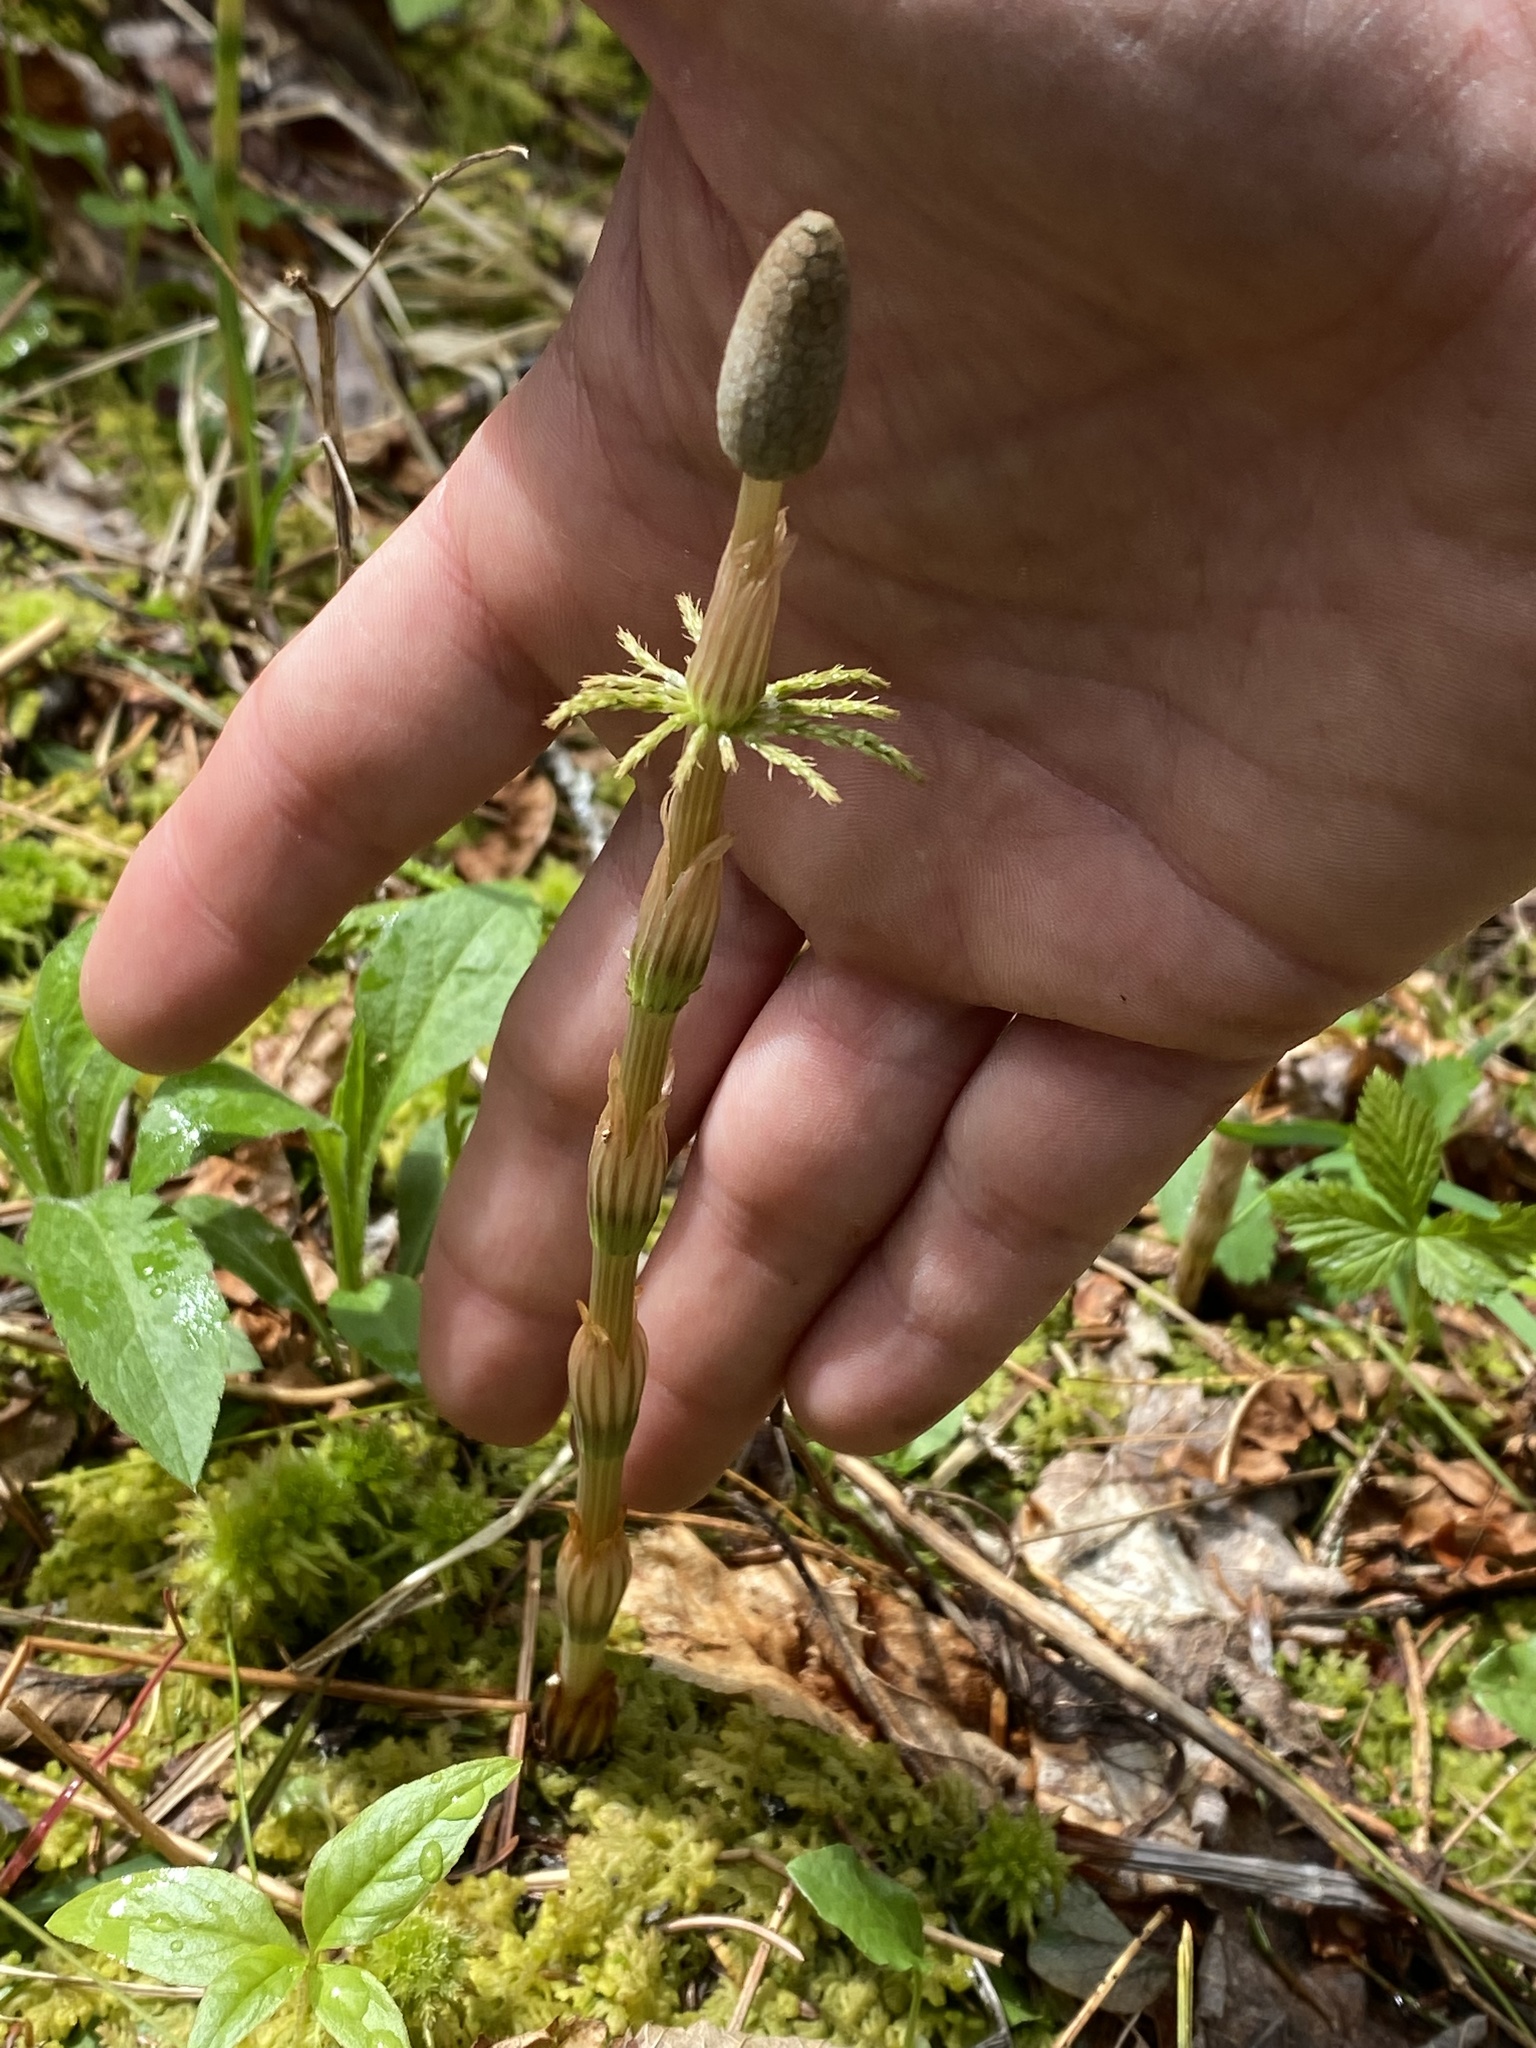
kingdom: Plantae
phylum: Tracheophyta
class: Polypodiopsida
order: Equisetales
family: Equisetaceae
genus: Equisetum
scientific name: Equisetum sylvaticum
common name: Wood horsetail
